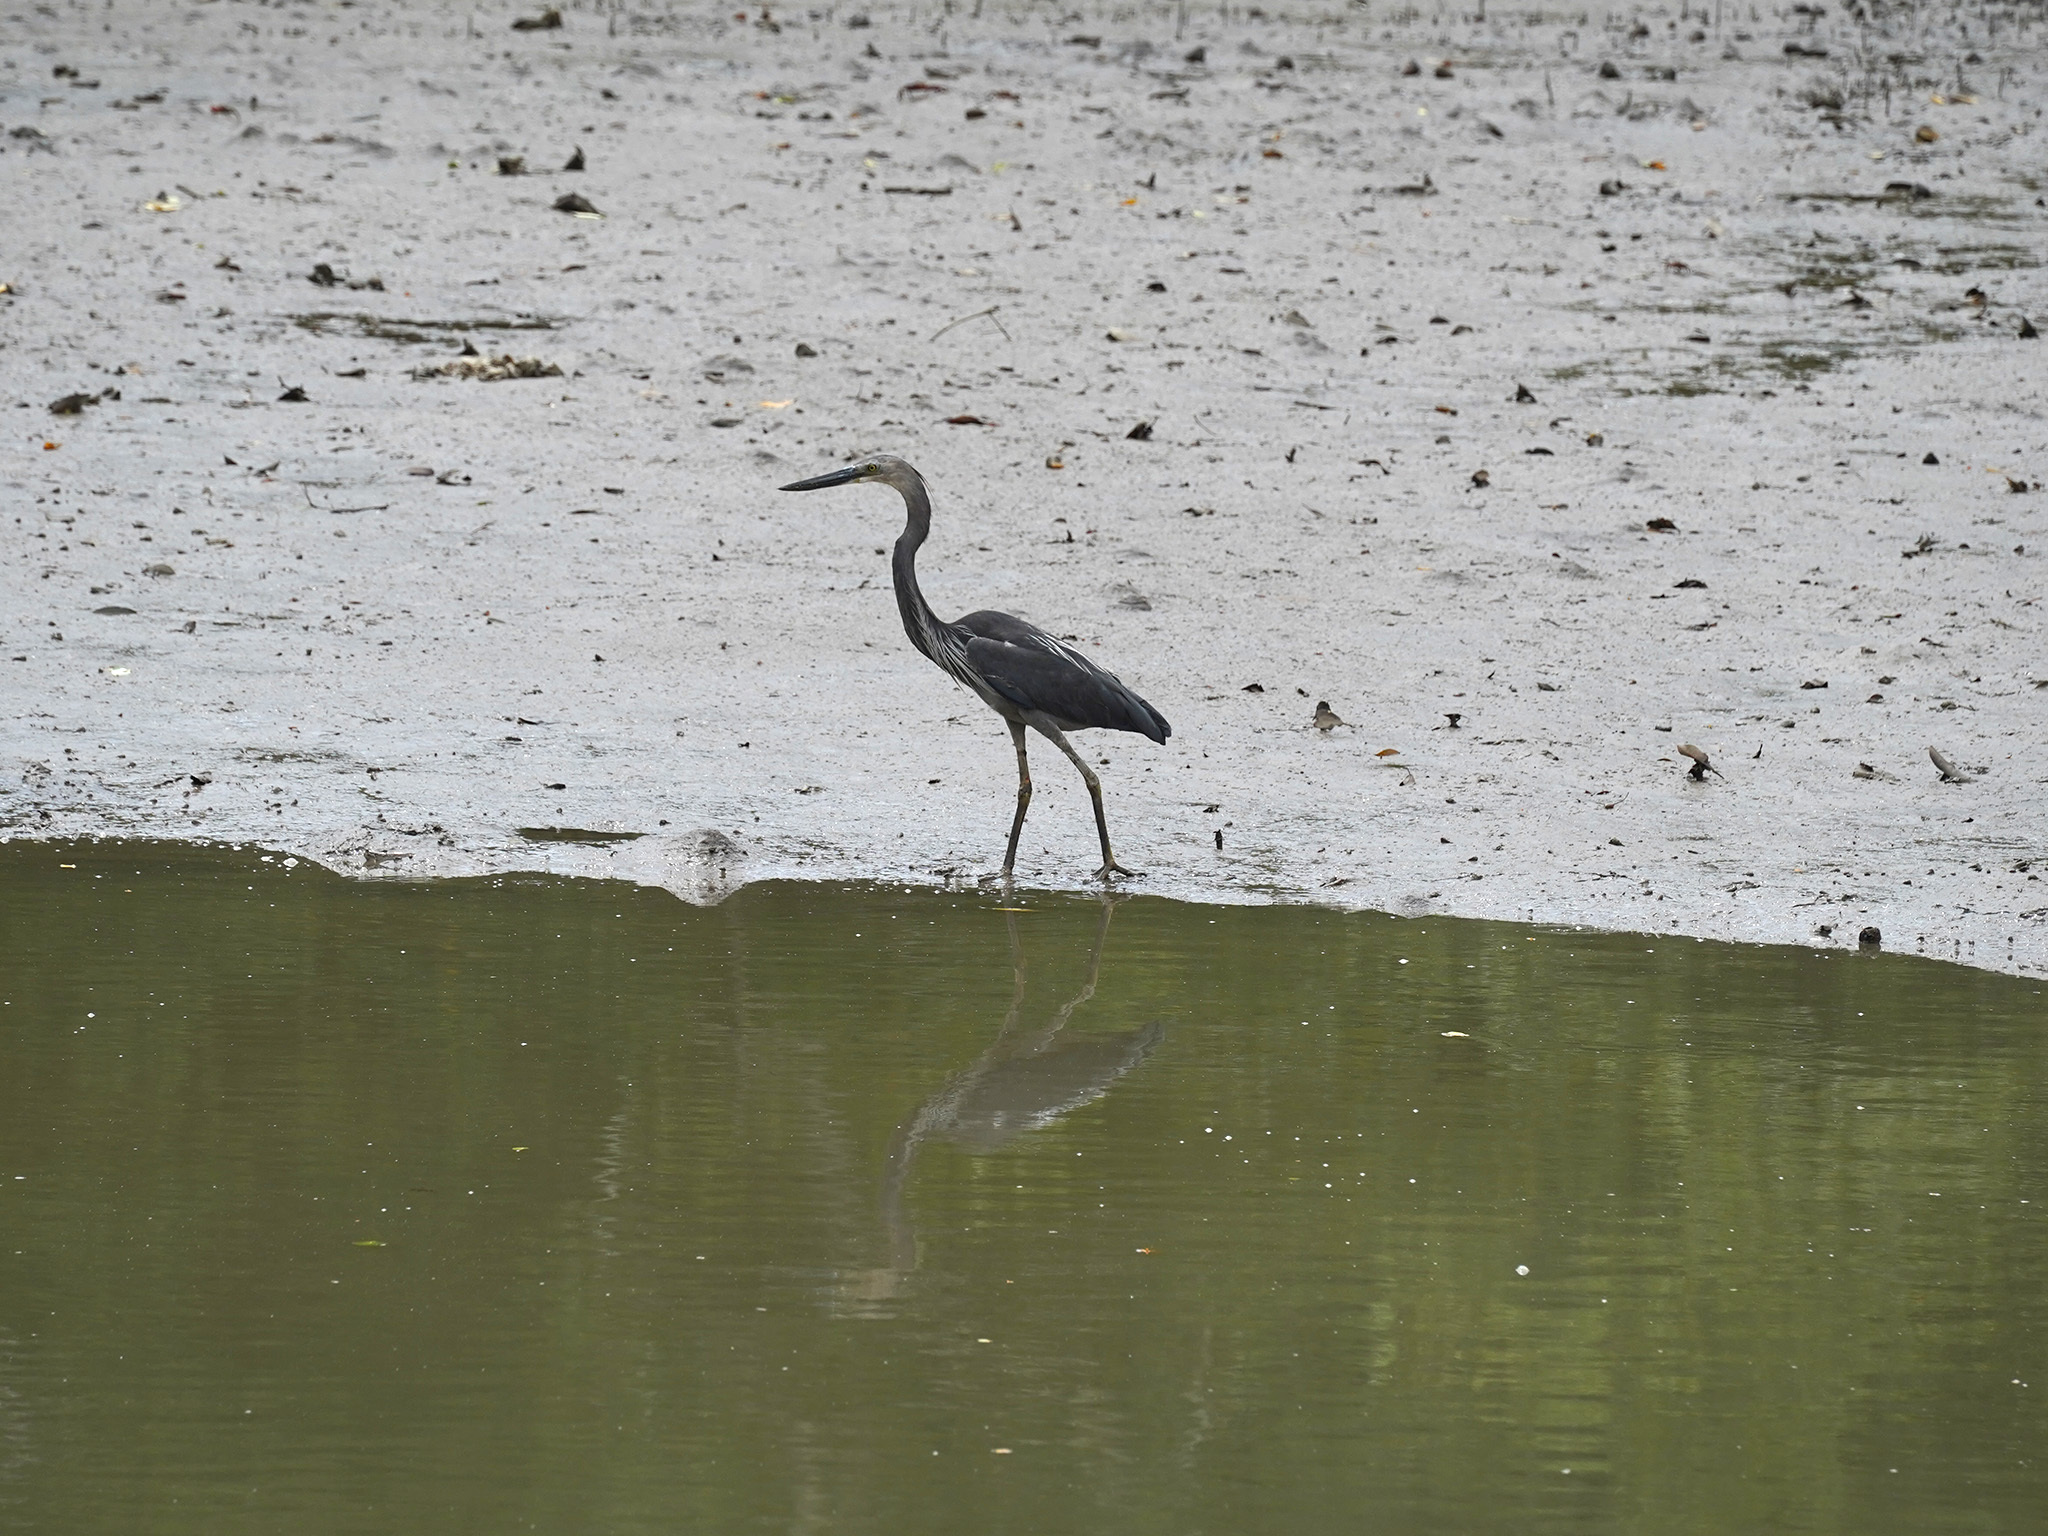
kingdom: Animalia
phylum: Chordata
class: Aves
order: Pelecaniformes
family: Ardeidae
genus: Ardea
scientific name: Ardea sumatrana
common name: Great-billed heron
